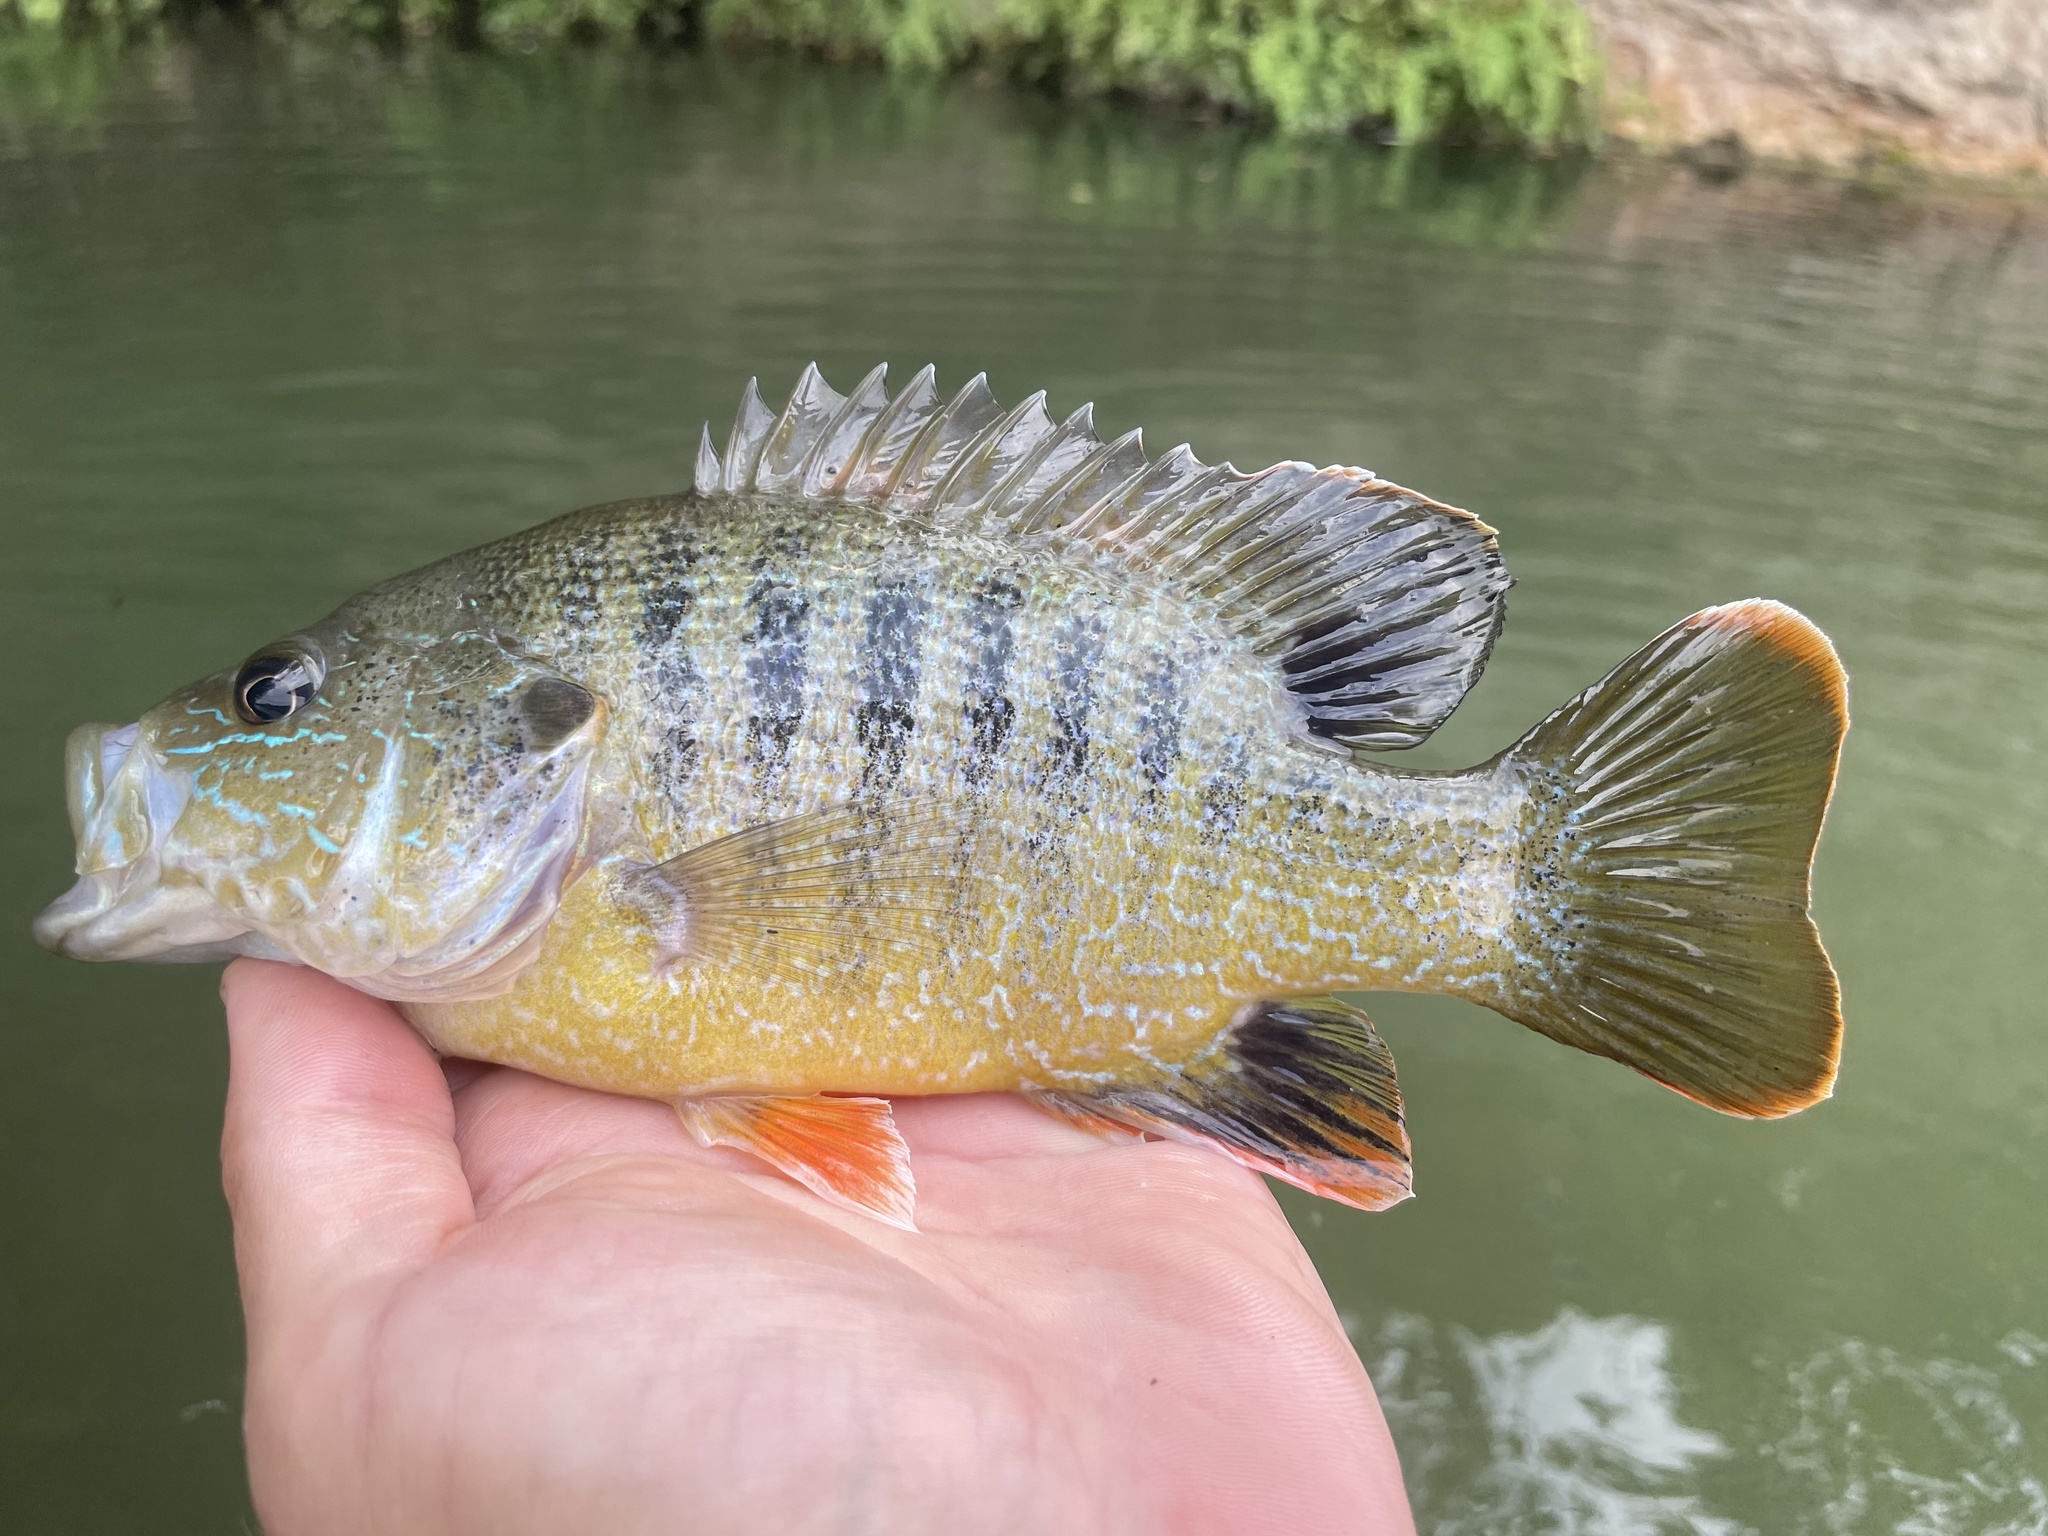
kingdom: Animalia
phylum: Chordata
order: Perciformes
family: Centrarchidae
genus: Lepomis
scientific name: Lepomis cyanellus
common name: Green sunfish
